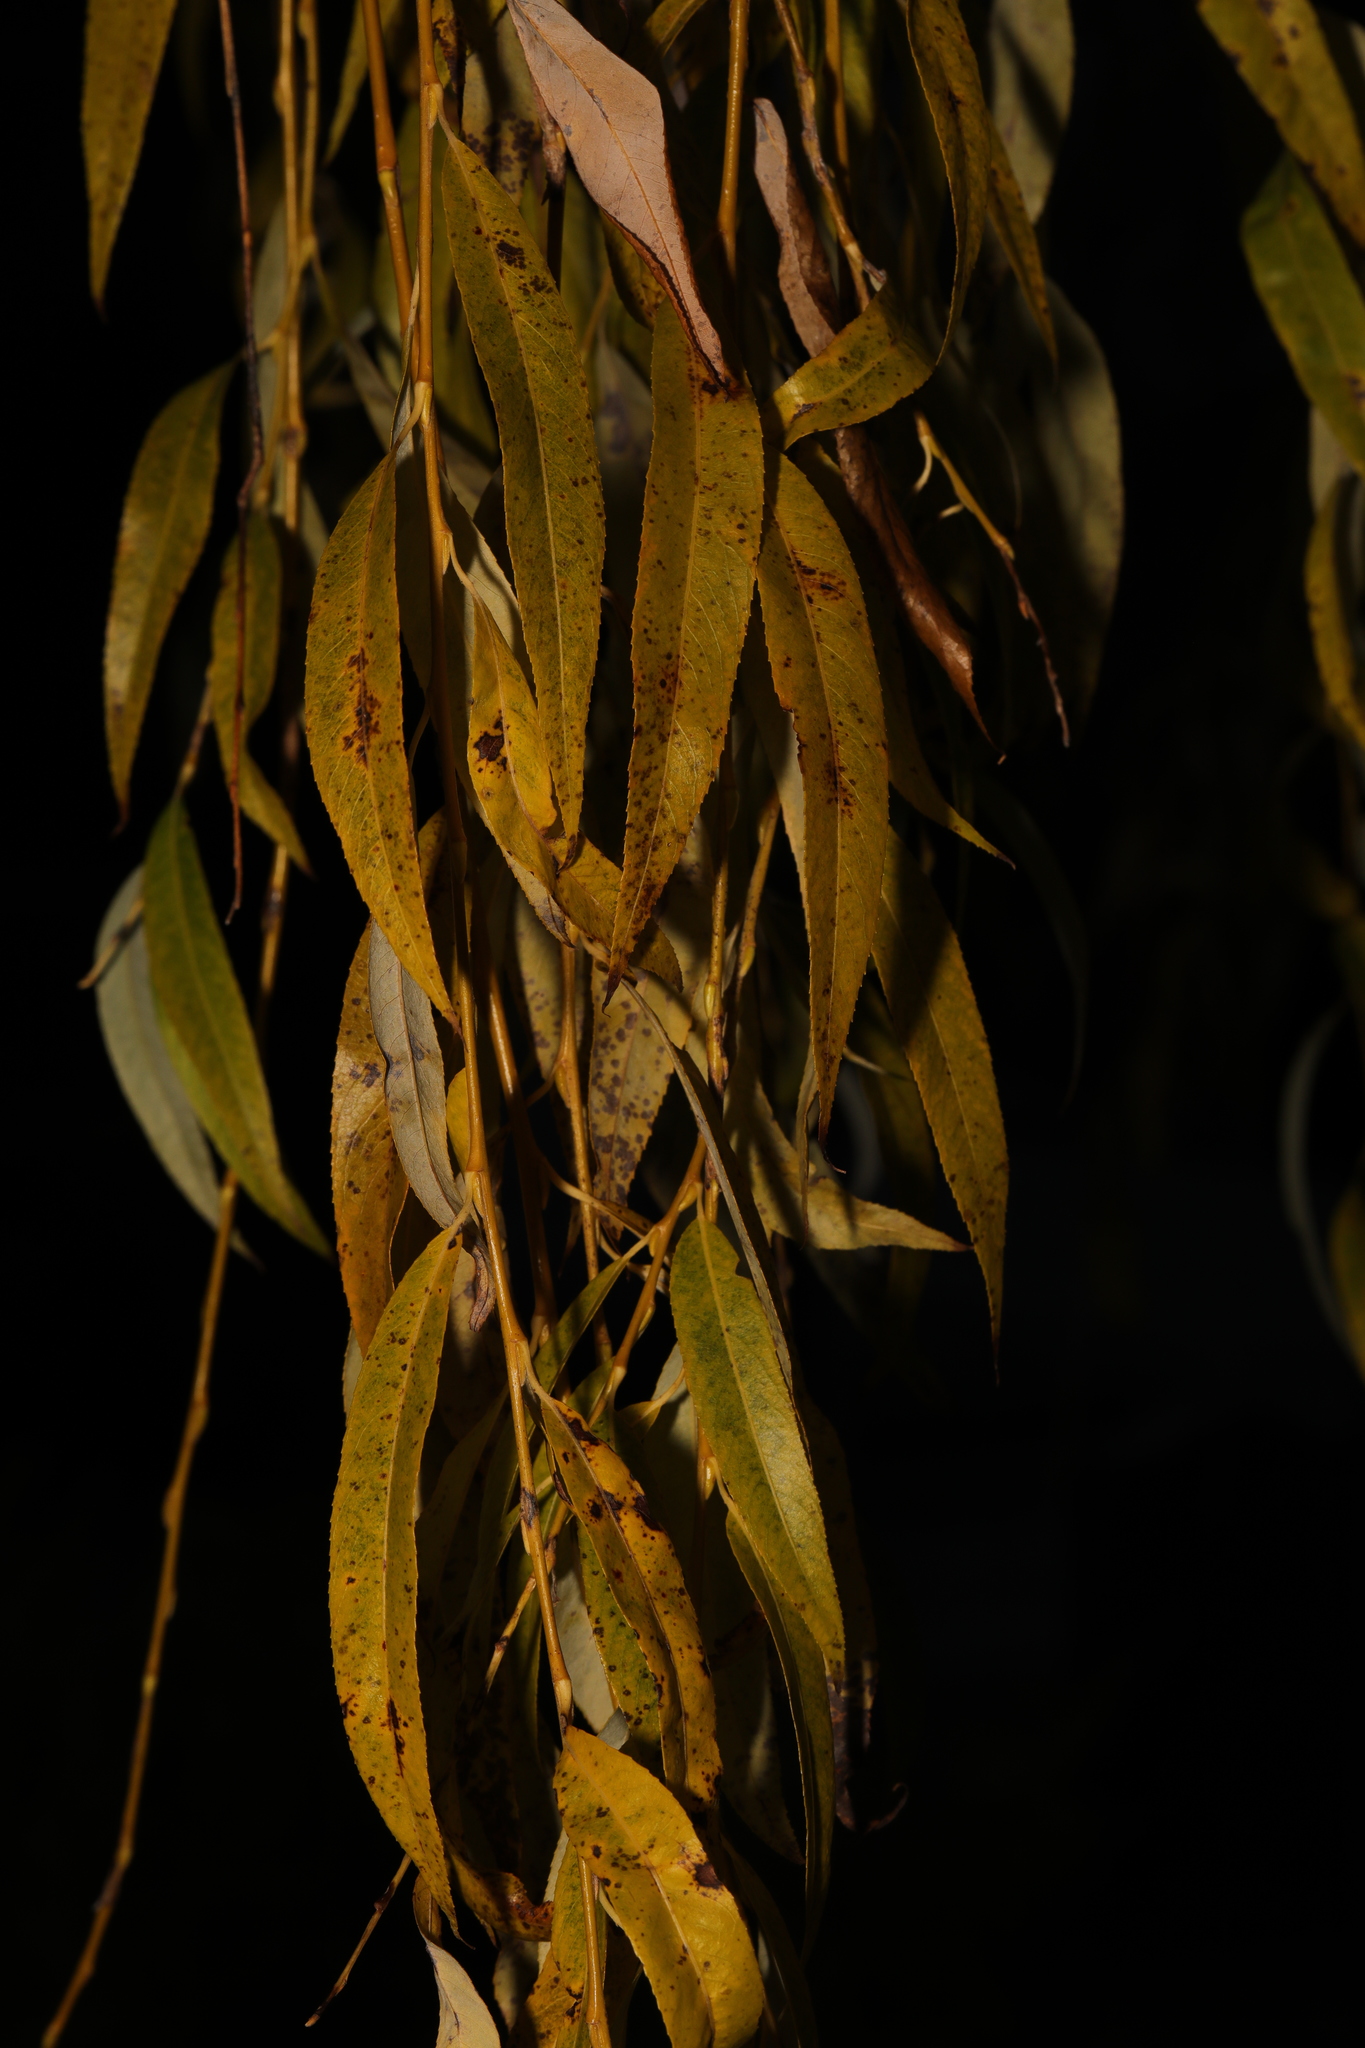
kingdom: Plantae
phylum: Tracheophyta
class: Magnoliopsida
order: Malpighiales
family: Salicaceae
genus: Salix
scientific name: Salix pendulina
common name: Wisconsin weeping willow
